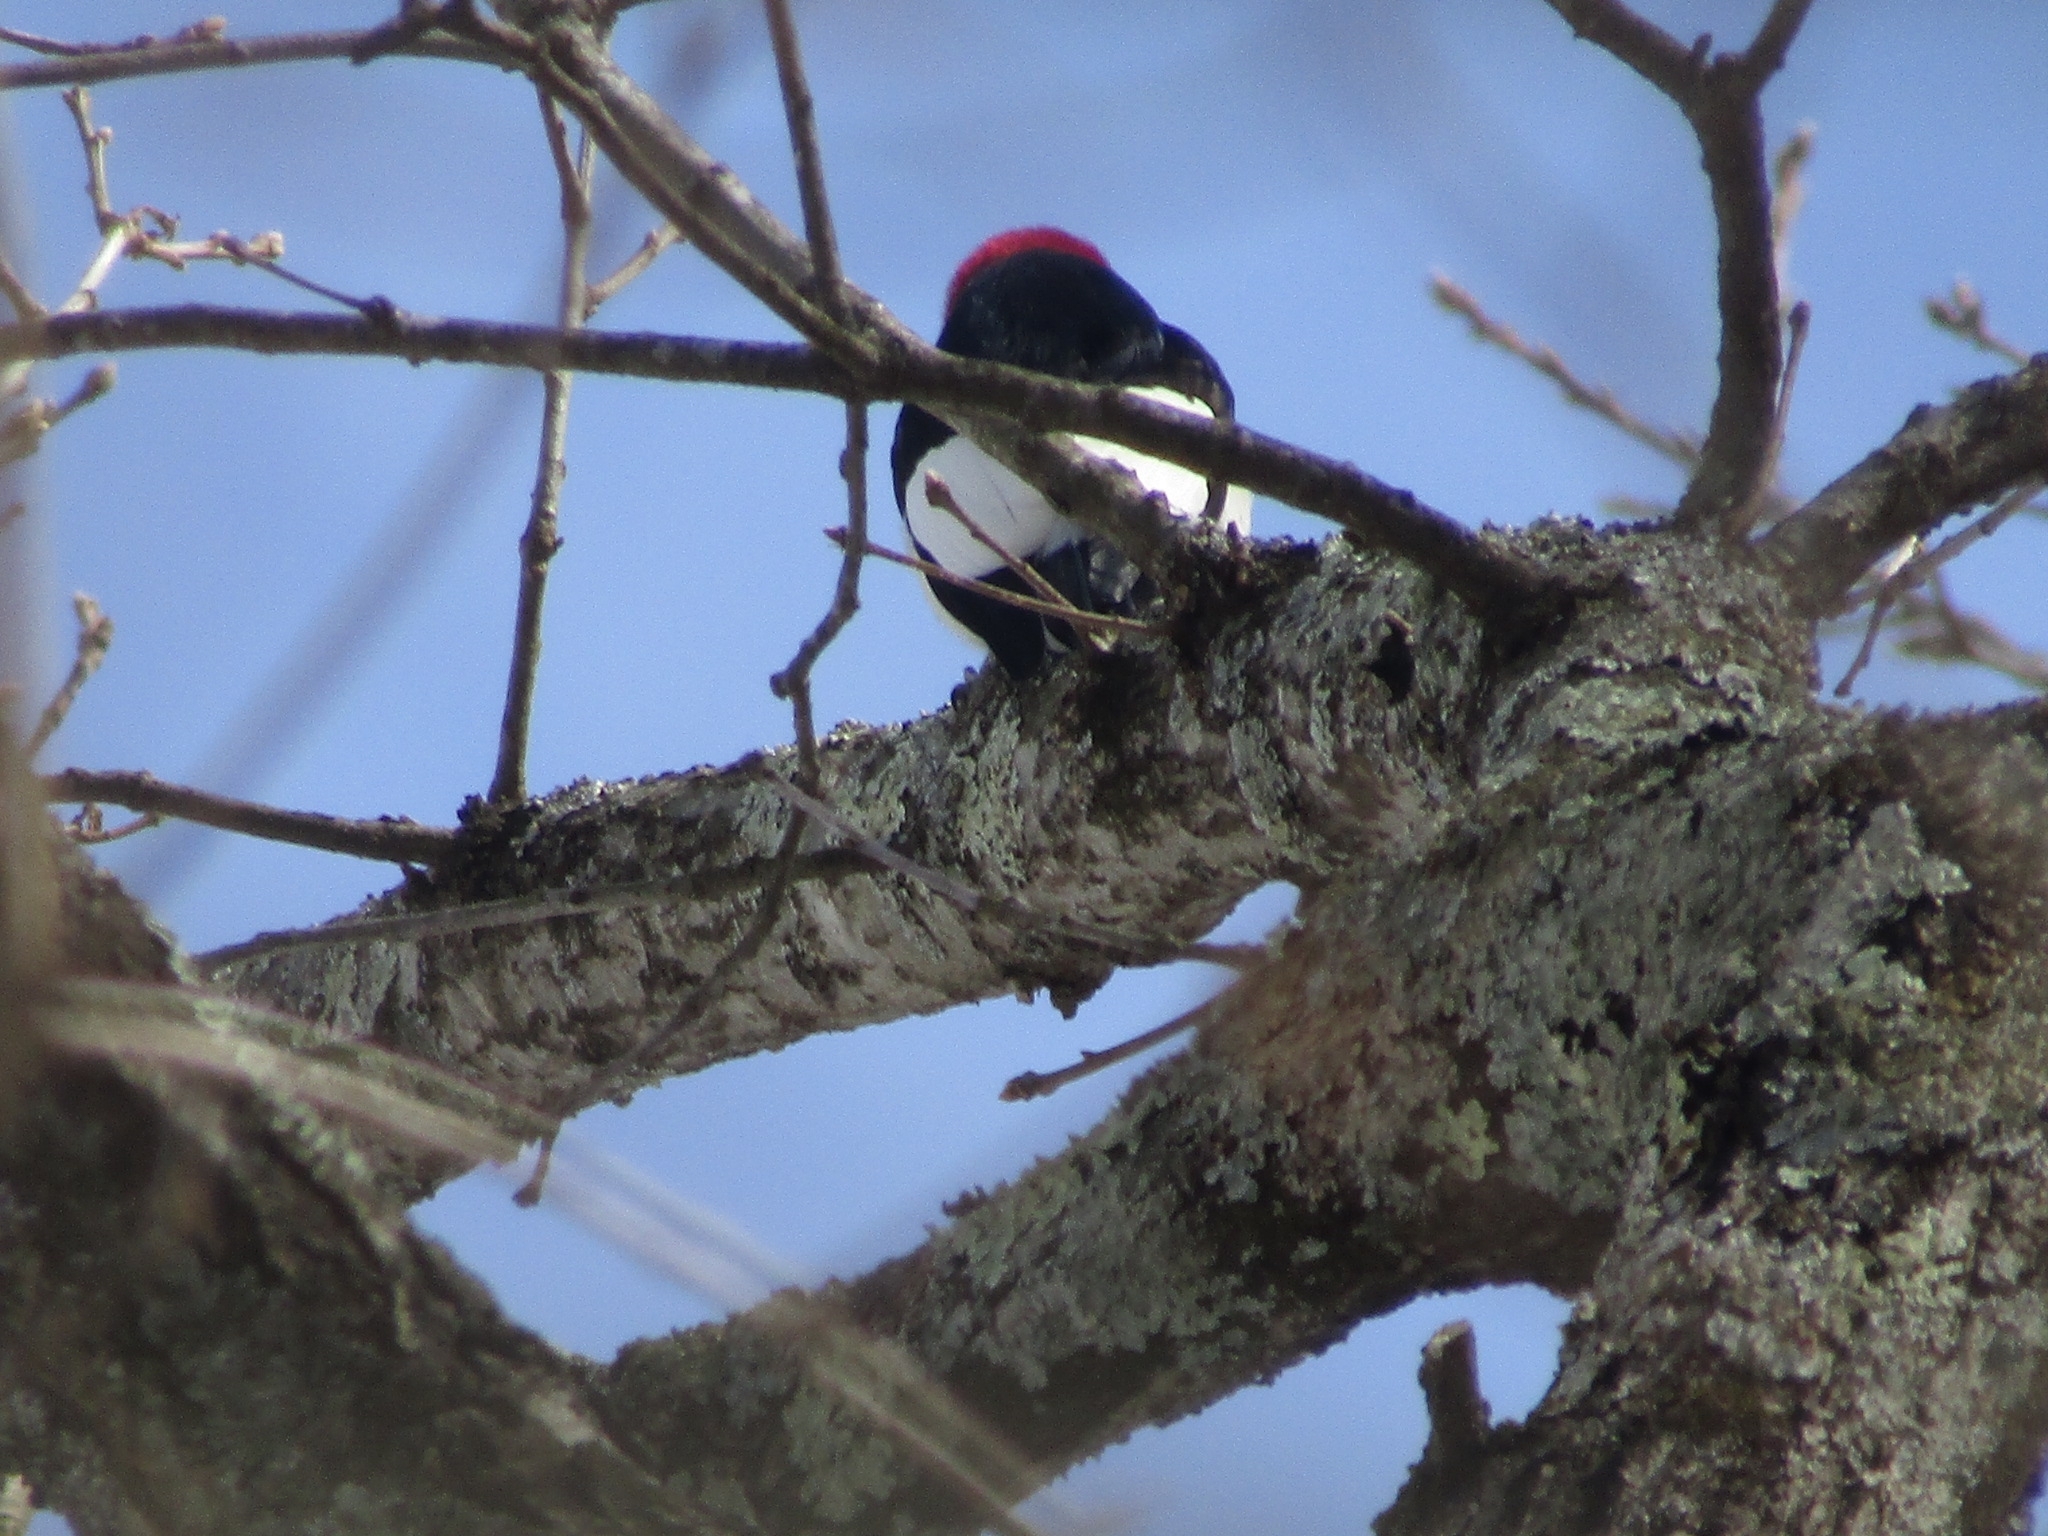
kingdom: Animalia
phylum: Chordata
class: Aves
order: Piciformes
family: Picidae
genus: Melanerpes
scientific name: Melanerpes erythrocephalus
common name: Red-headed woodpecker
